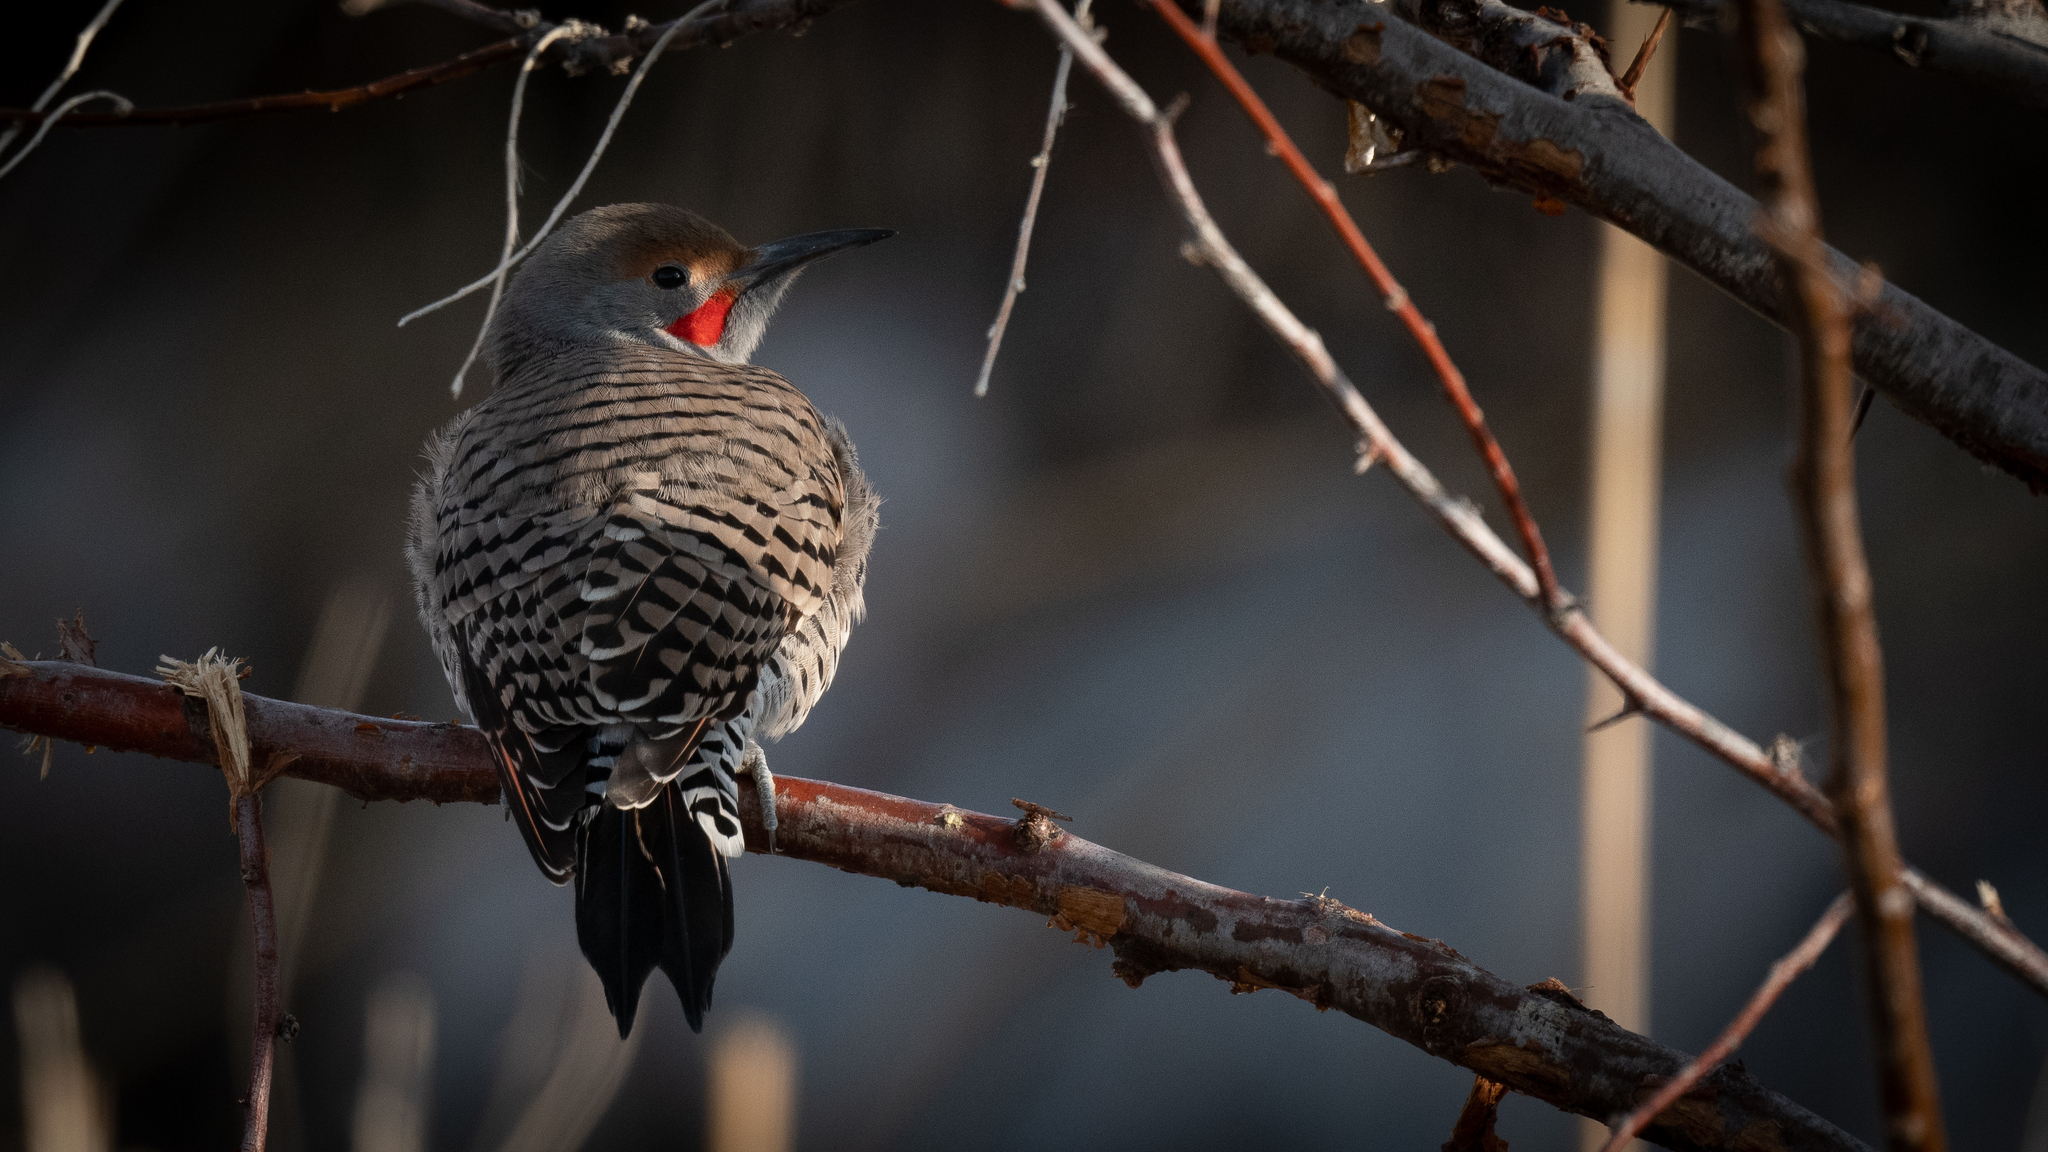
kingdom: Animalia
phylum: Chordata
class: Aves
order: Piciformes
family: Picidae
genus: Colaptes
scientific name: Colaptes auratus
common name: Northern flicker
